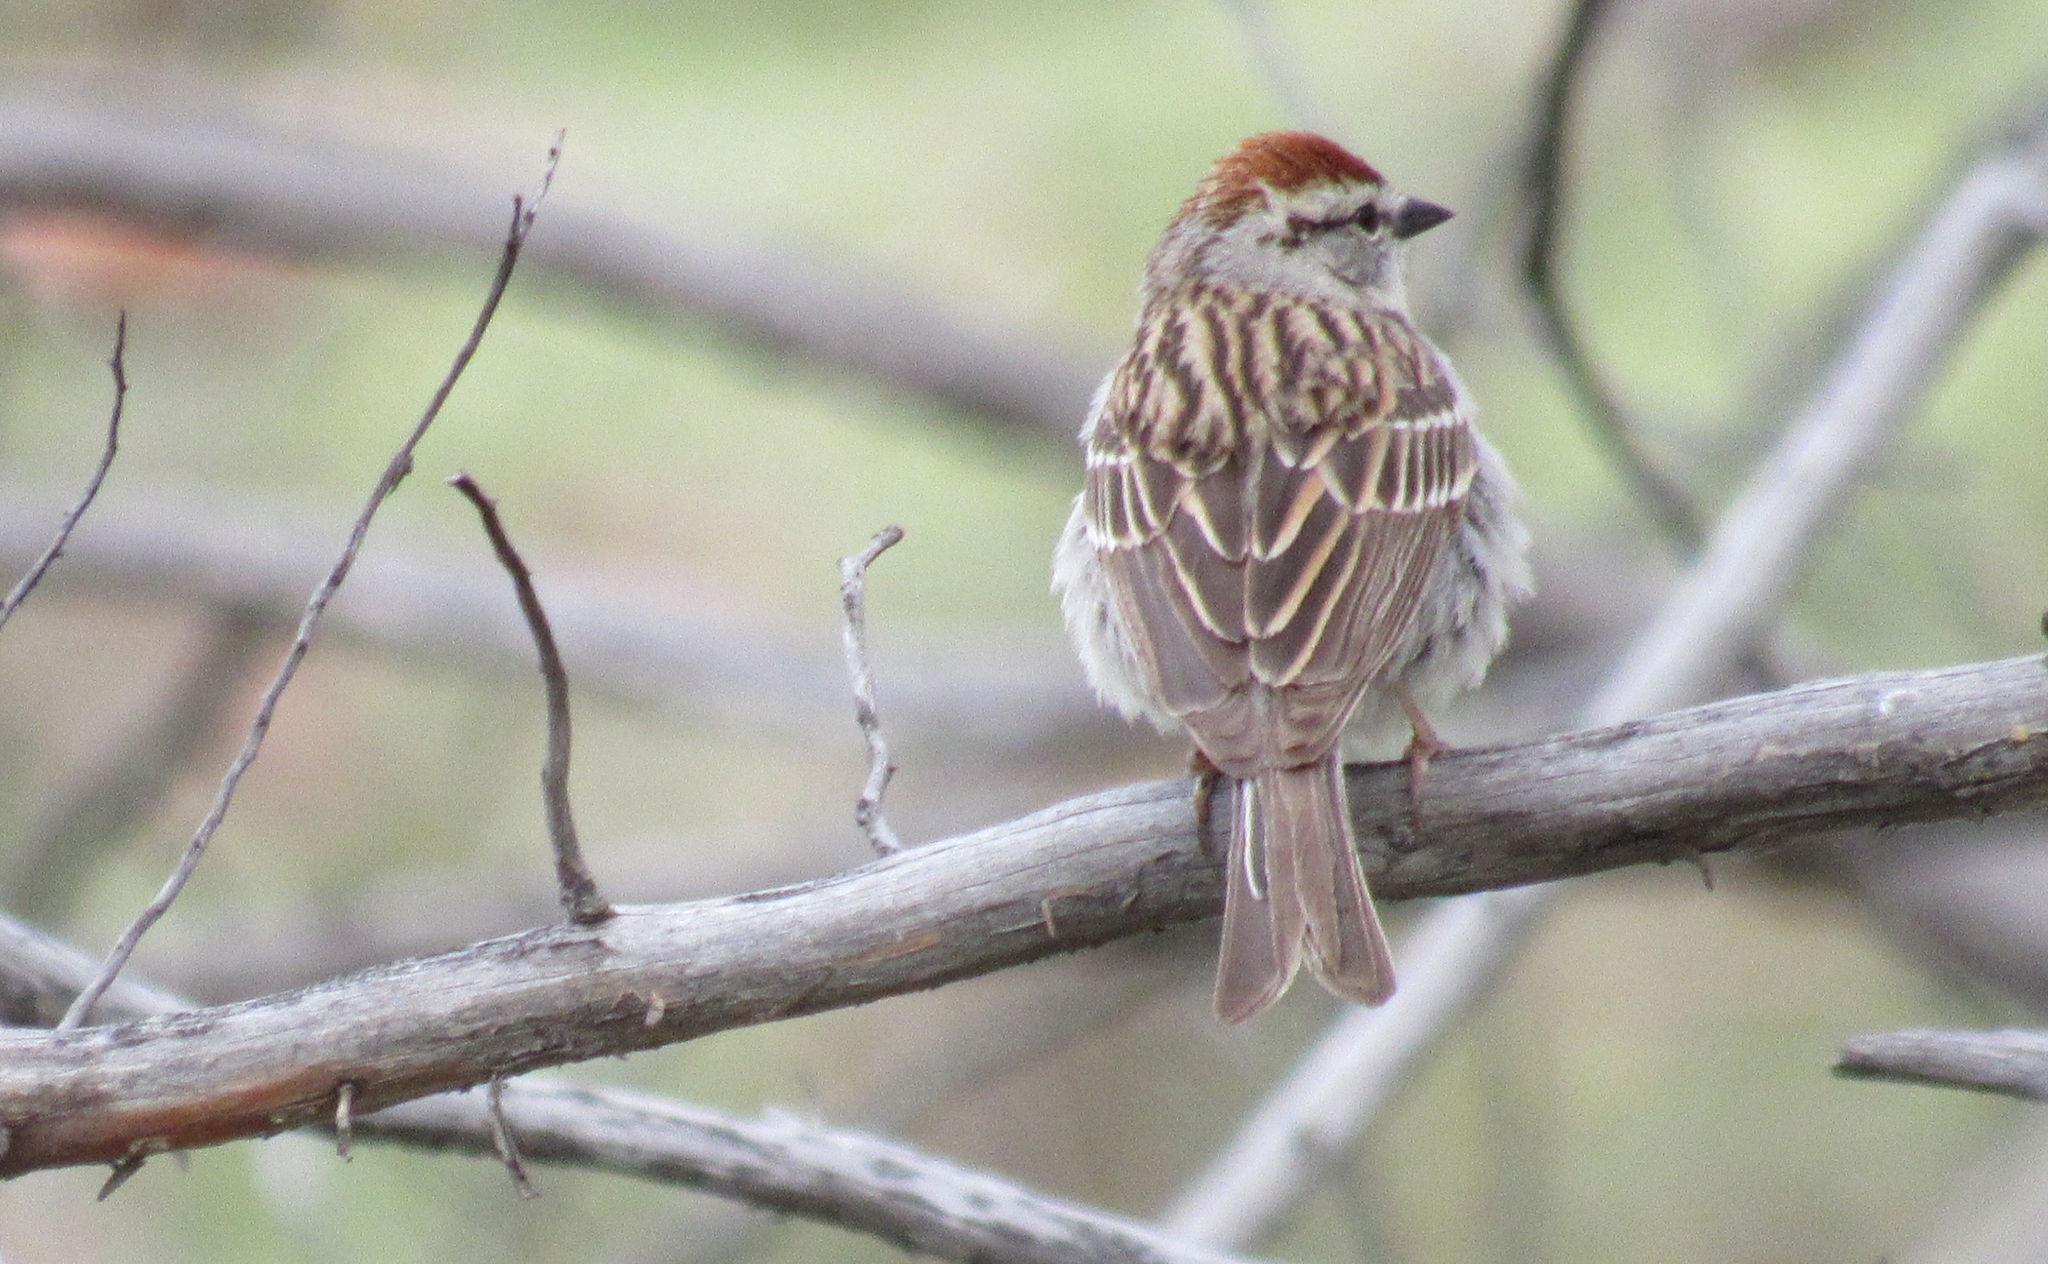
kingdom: Animalia
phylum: Chordata
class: Aves
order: Passeriformes
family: Passerellidae
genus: Spizella
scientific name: Spizella passerina
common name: Chipping sparrow
